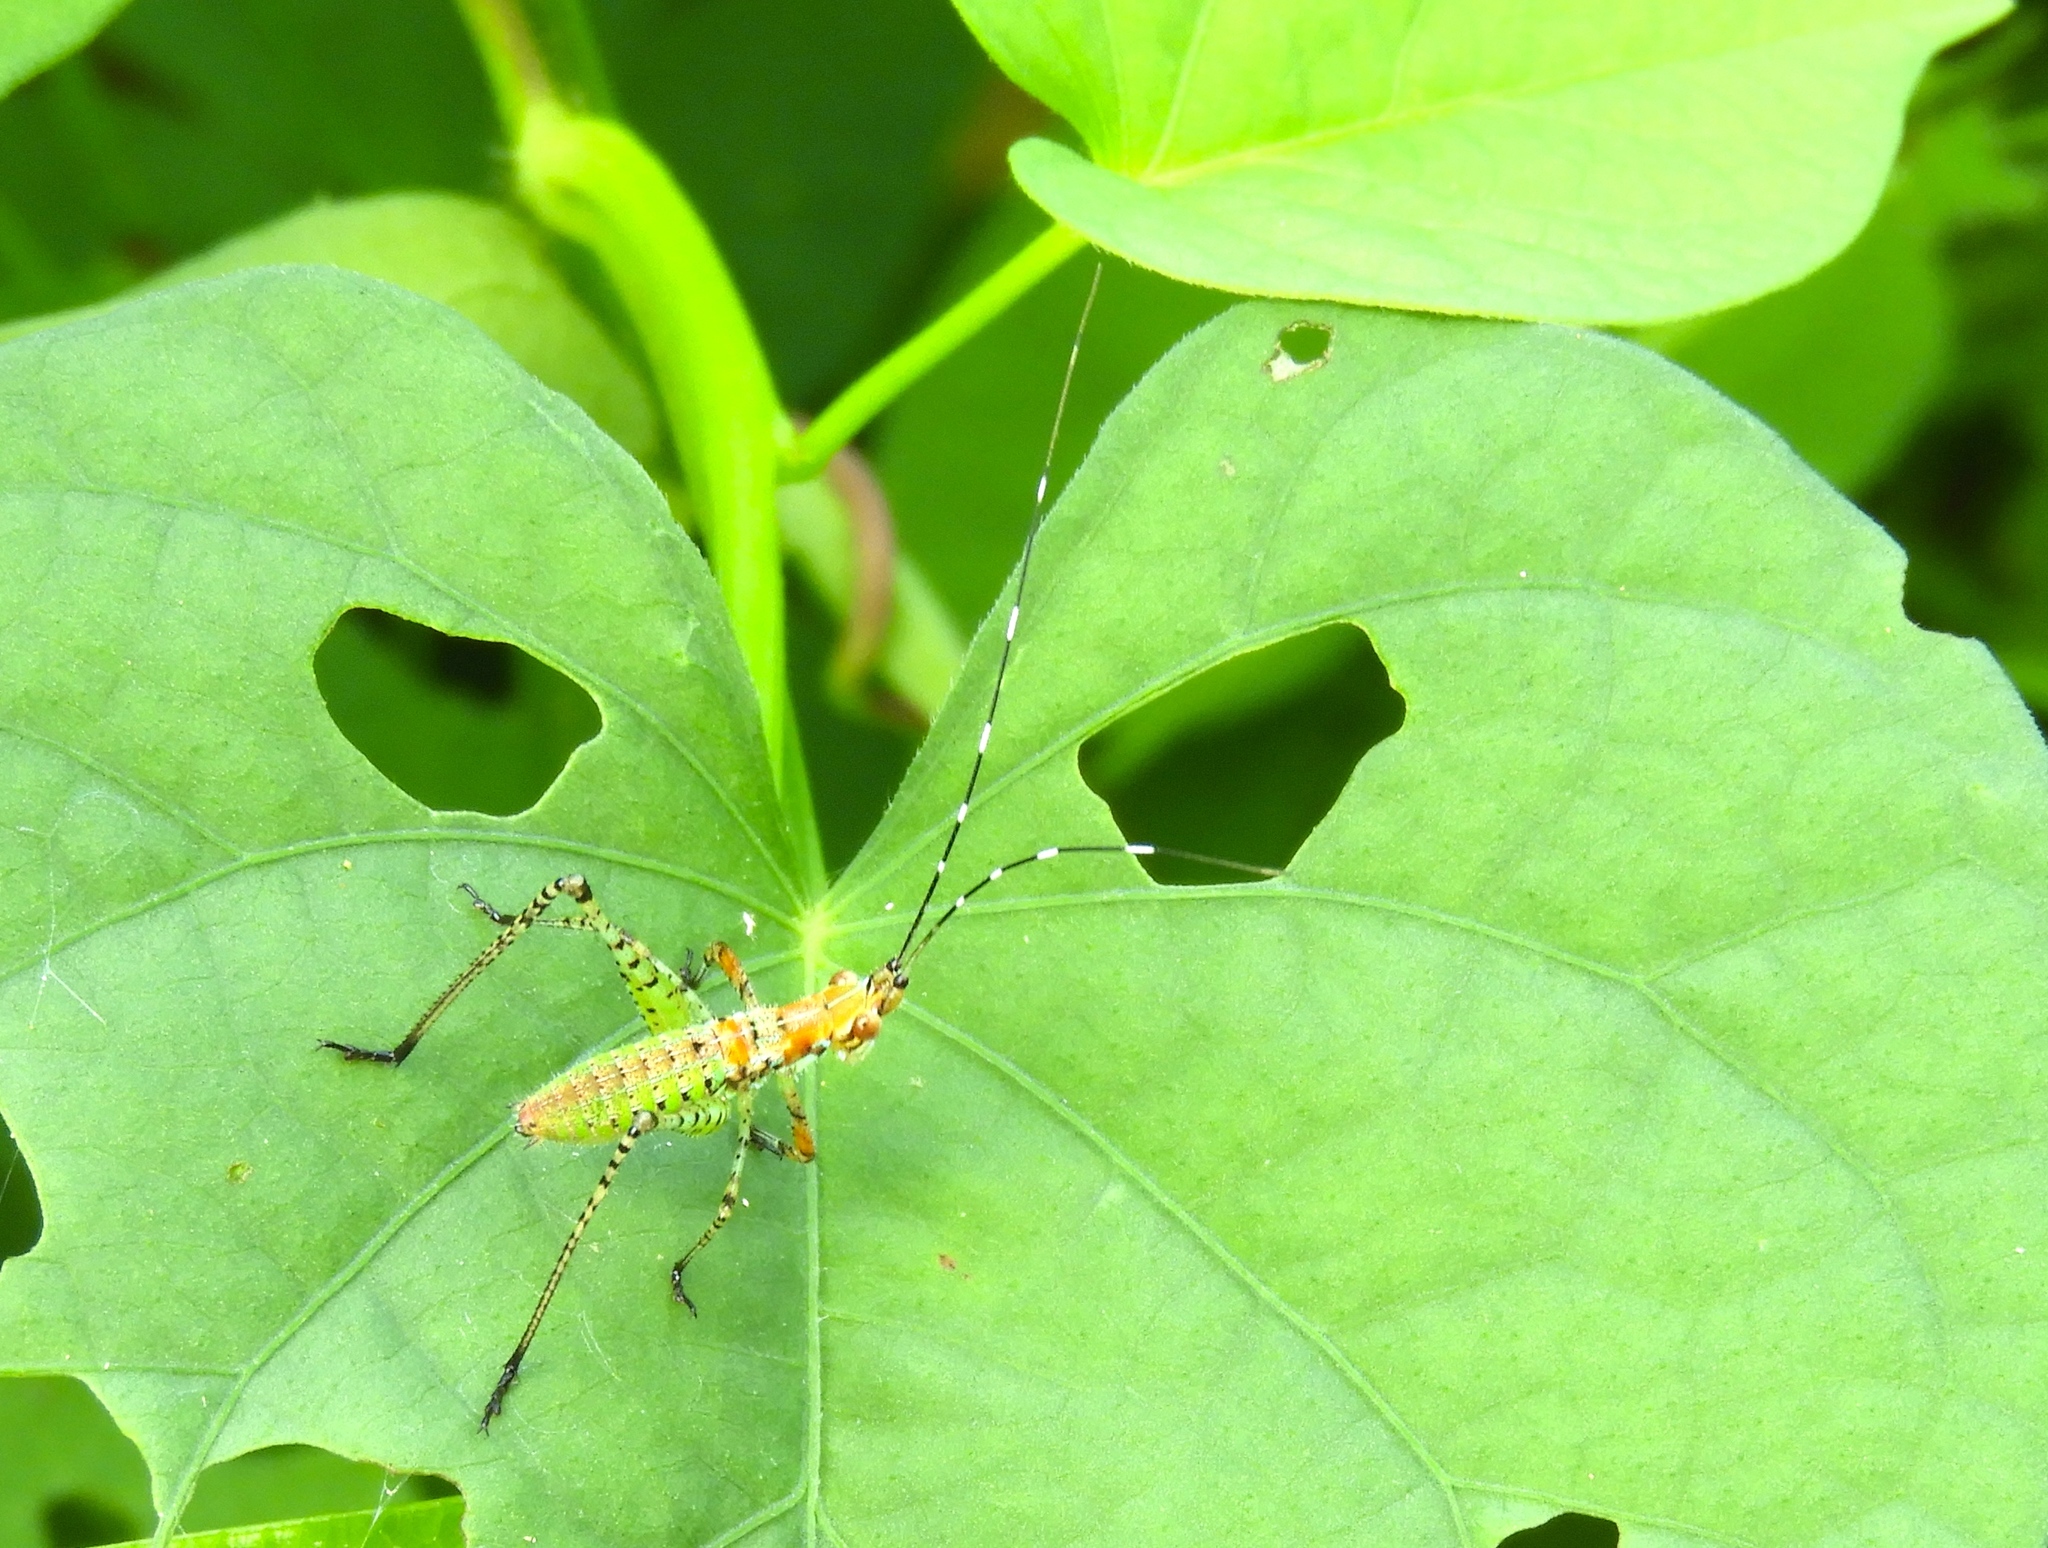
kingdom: Animalia
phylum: Arthropoda
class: Insecta
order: Orthoptera
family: Tettigoniidae
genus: Scudderia
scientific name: Scudderia
